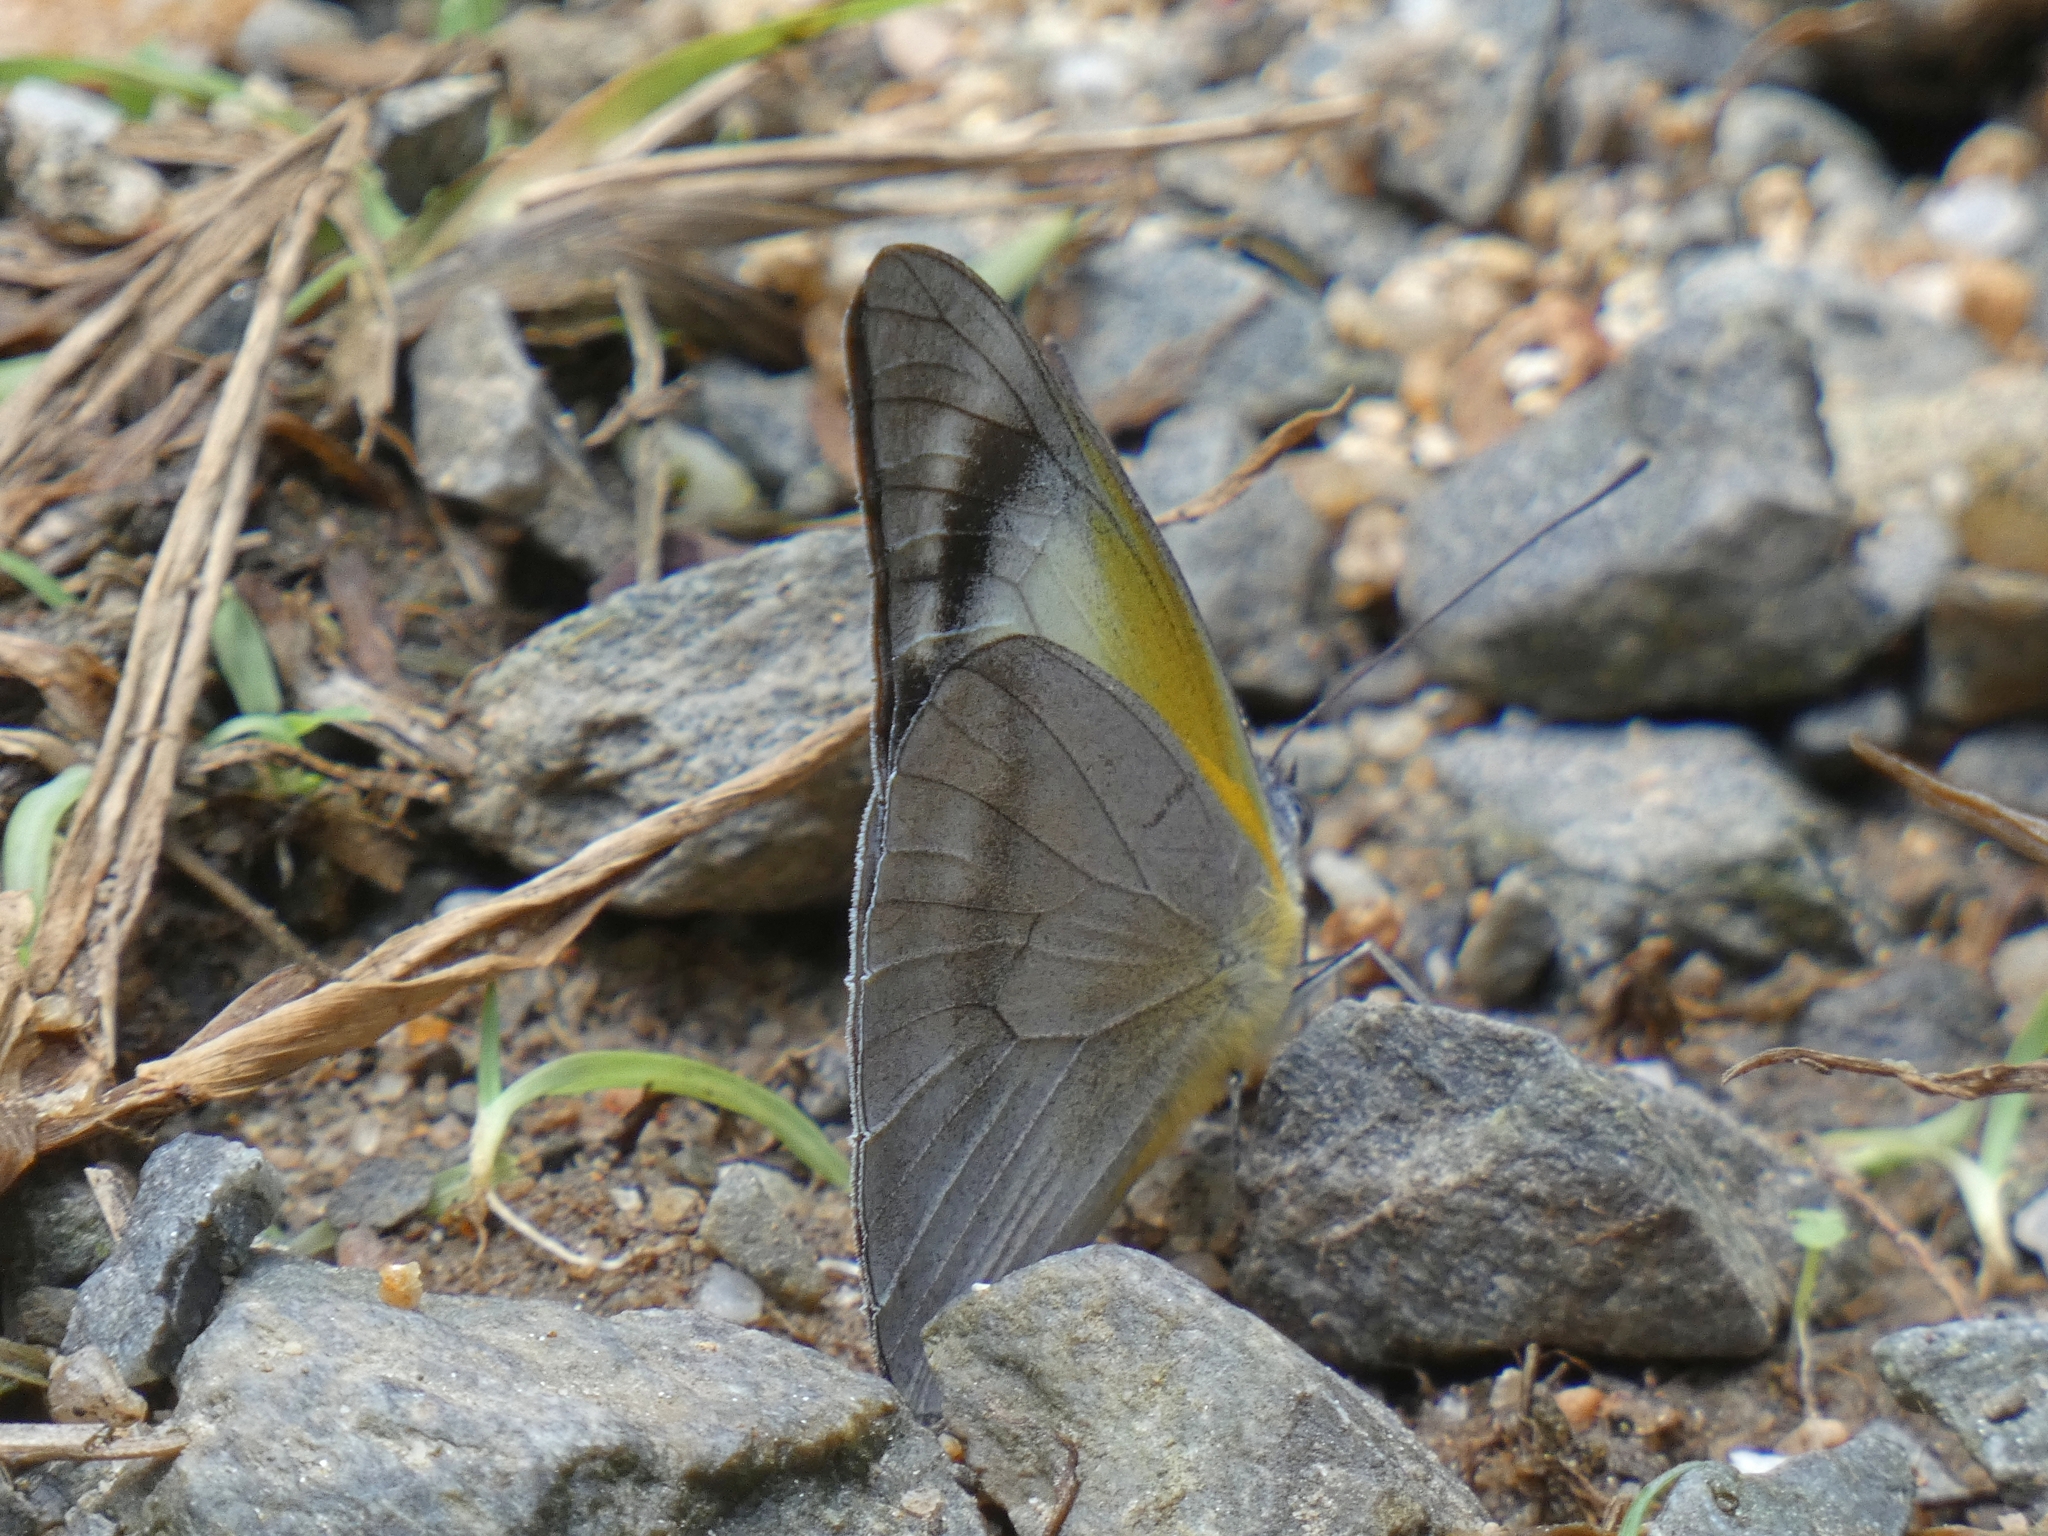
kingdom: Animalia
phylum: Arthropoda
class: Insecta
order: Lepidoptera
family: Pieridae
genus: Appias
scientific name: Appias melania
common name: Grey albatross
